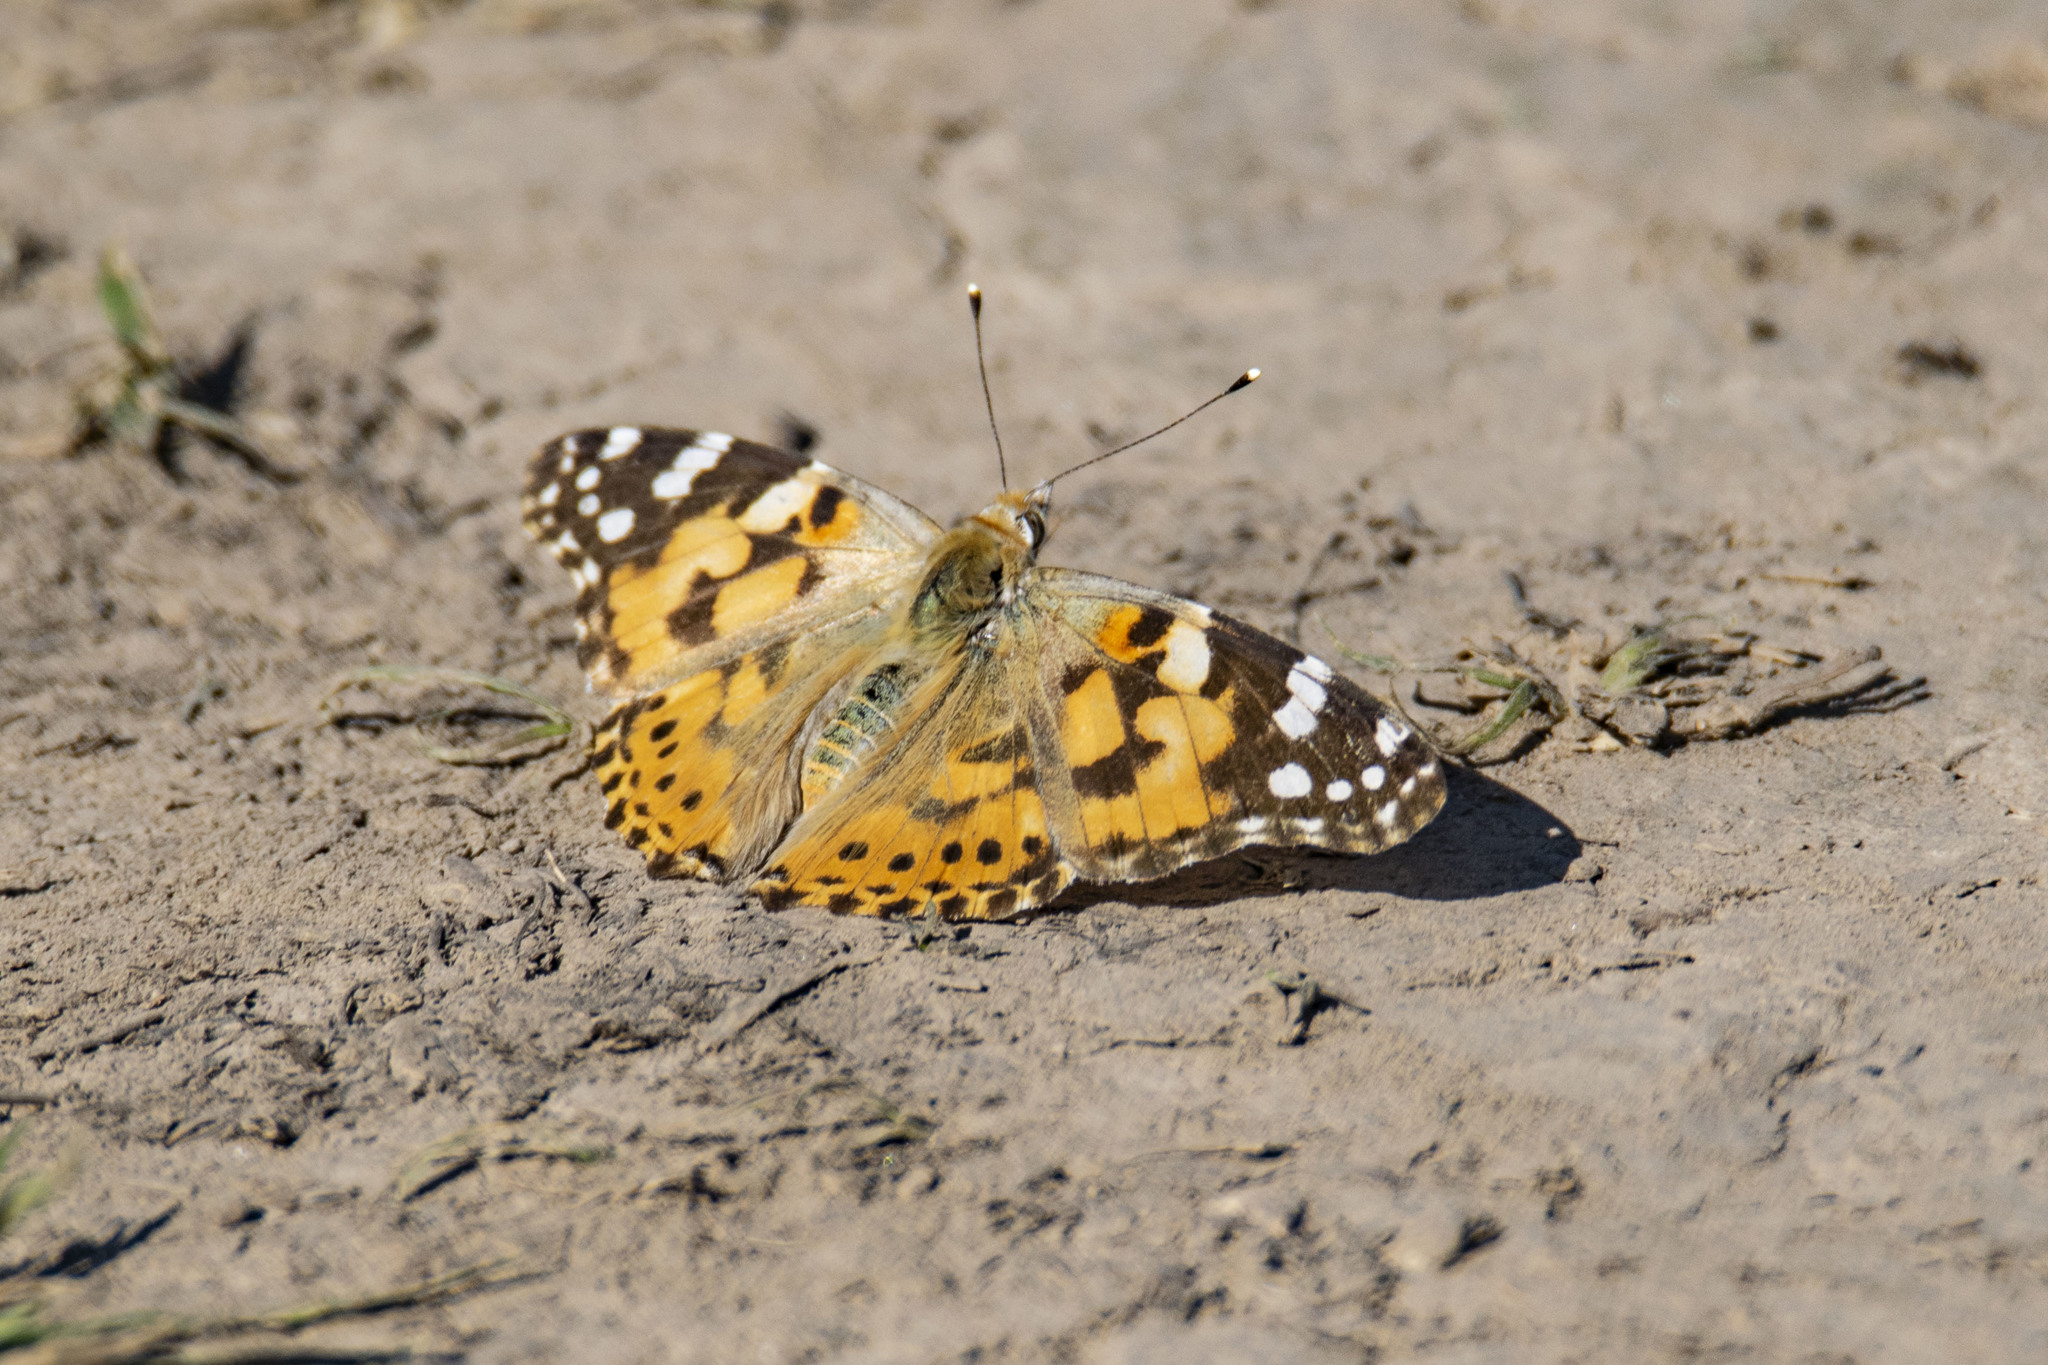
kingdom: Animalia
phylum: Arthropoda
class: Insecta
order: Lepidoptera
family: Nymphalidae
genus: Vanessa
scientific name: Vanessa cardui
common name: Painted lady
